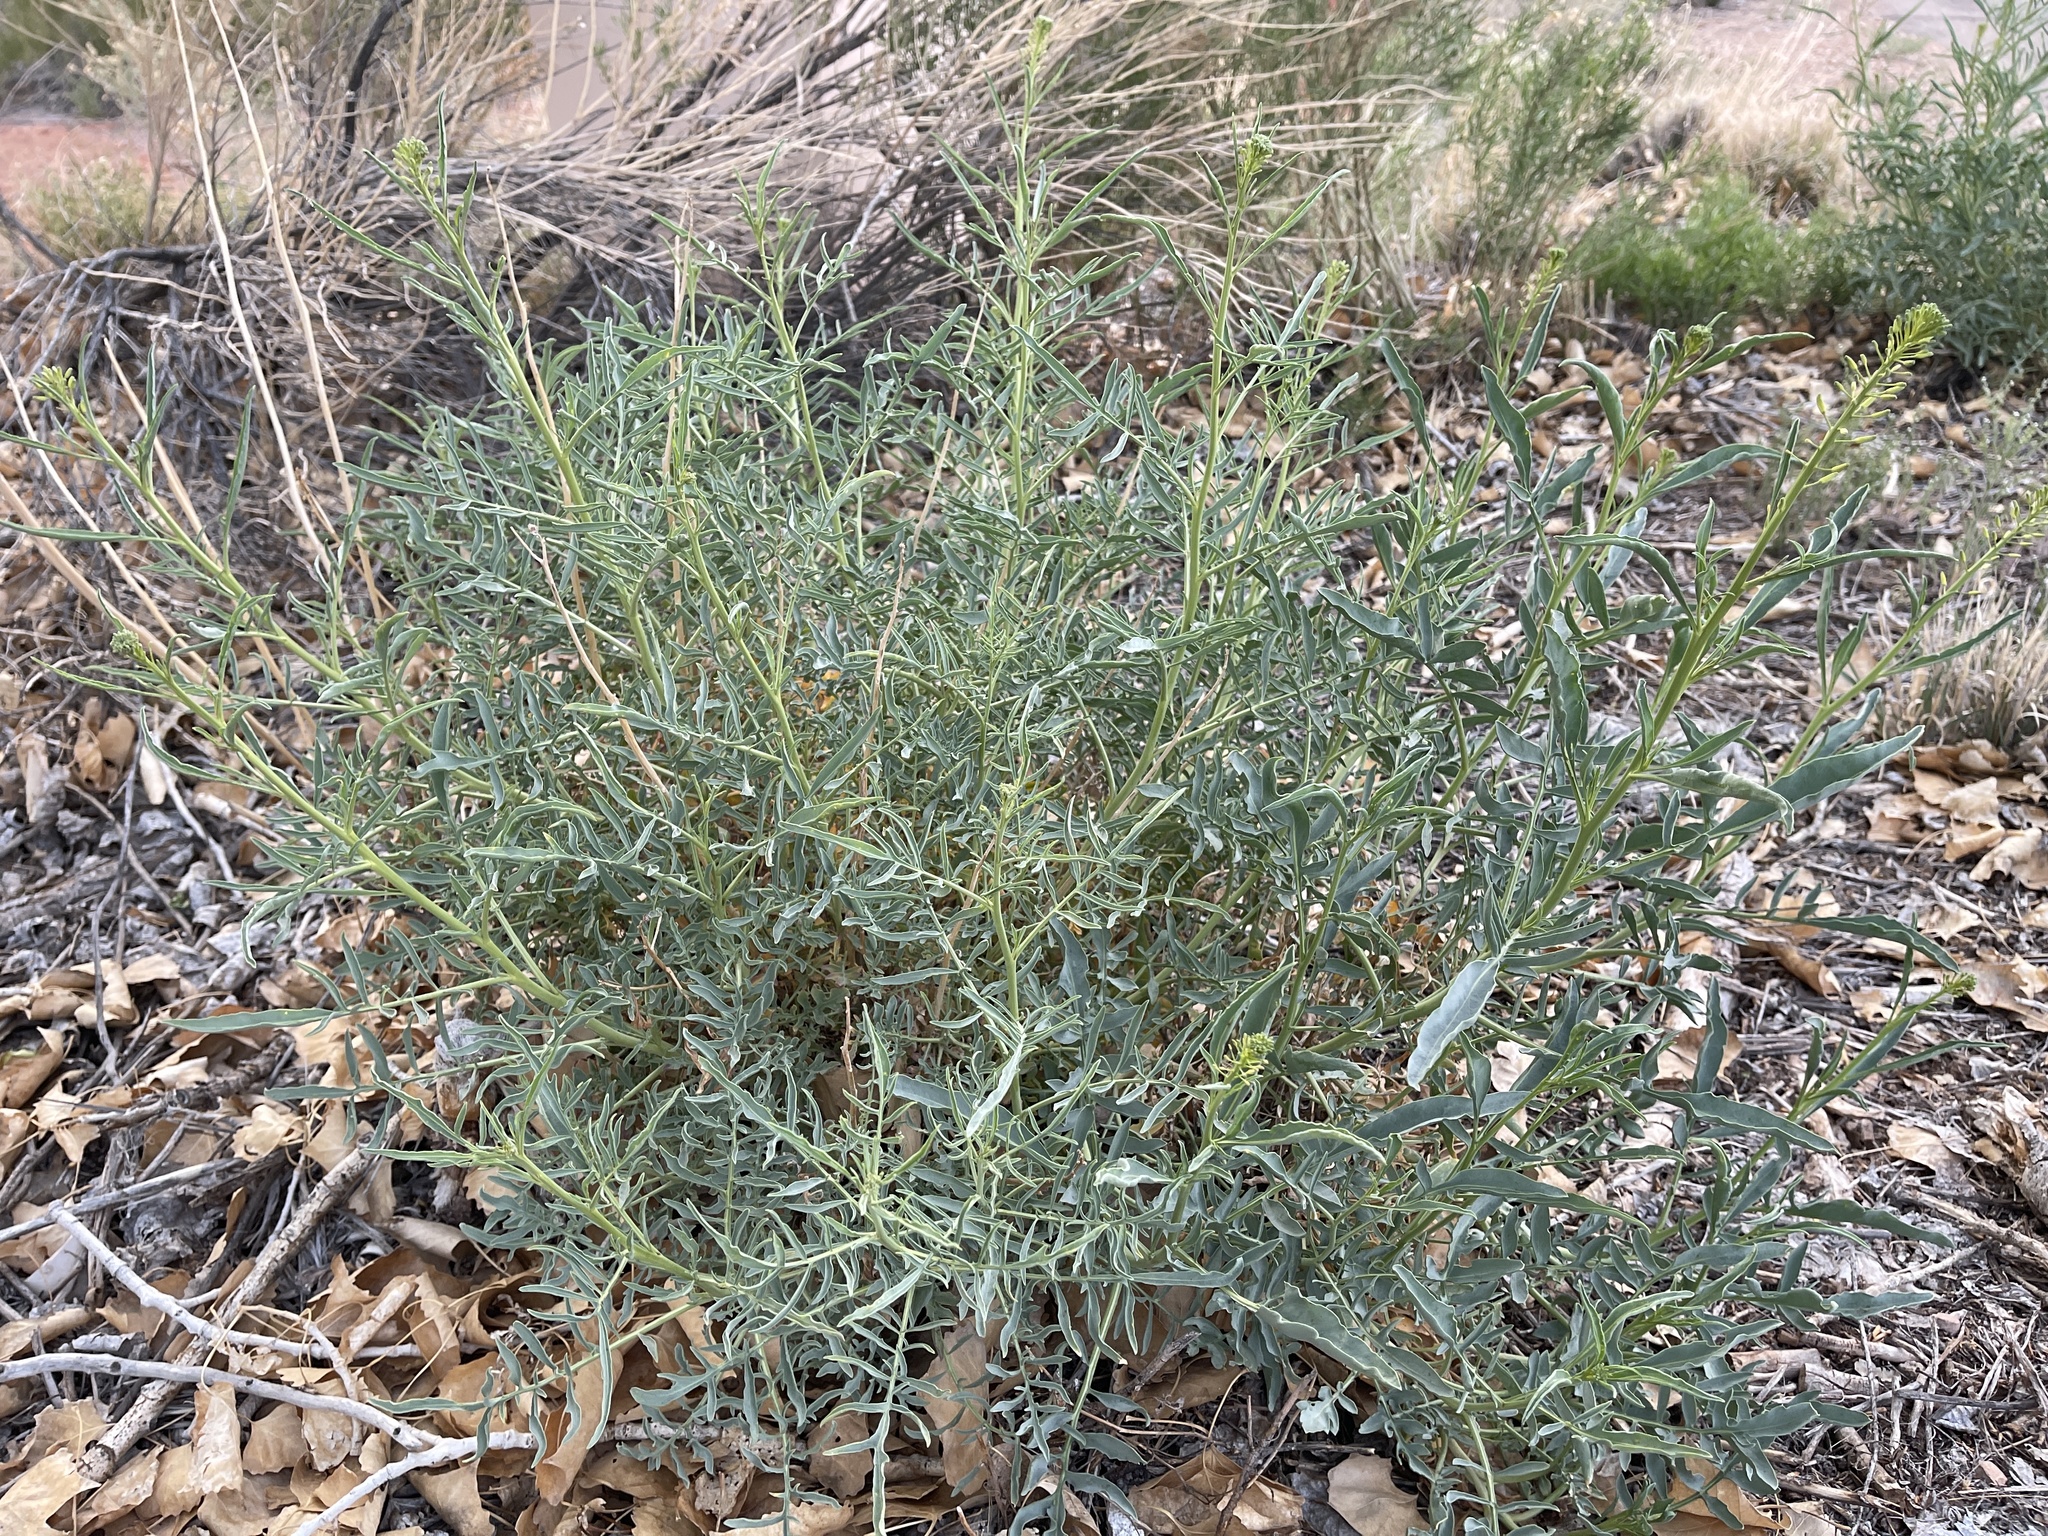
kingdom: Plantae
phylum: Tracheophyta
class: Magnoliopsida
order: Brassicales
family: Brassicaceae
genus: Stanleya
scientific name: Stanleya pinnata
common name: Prince's-plume
